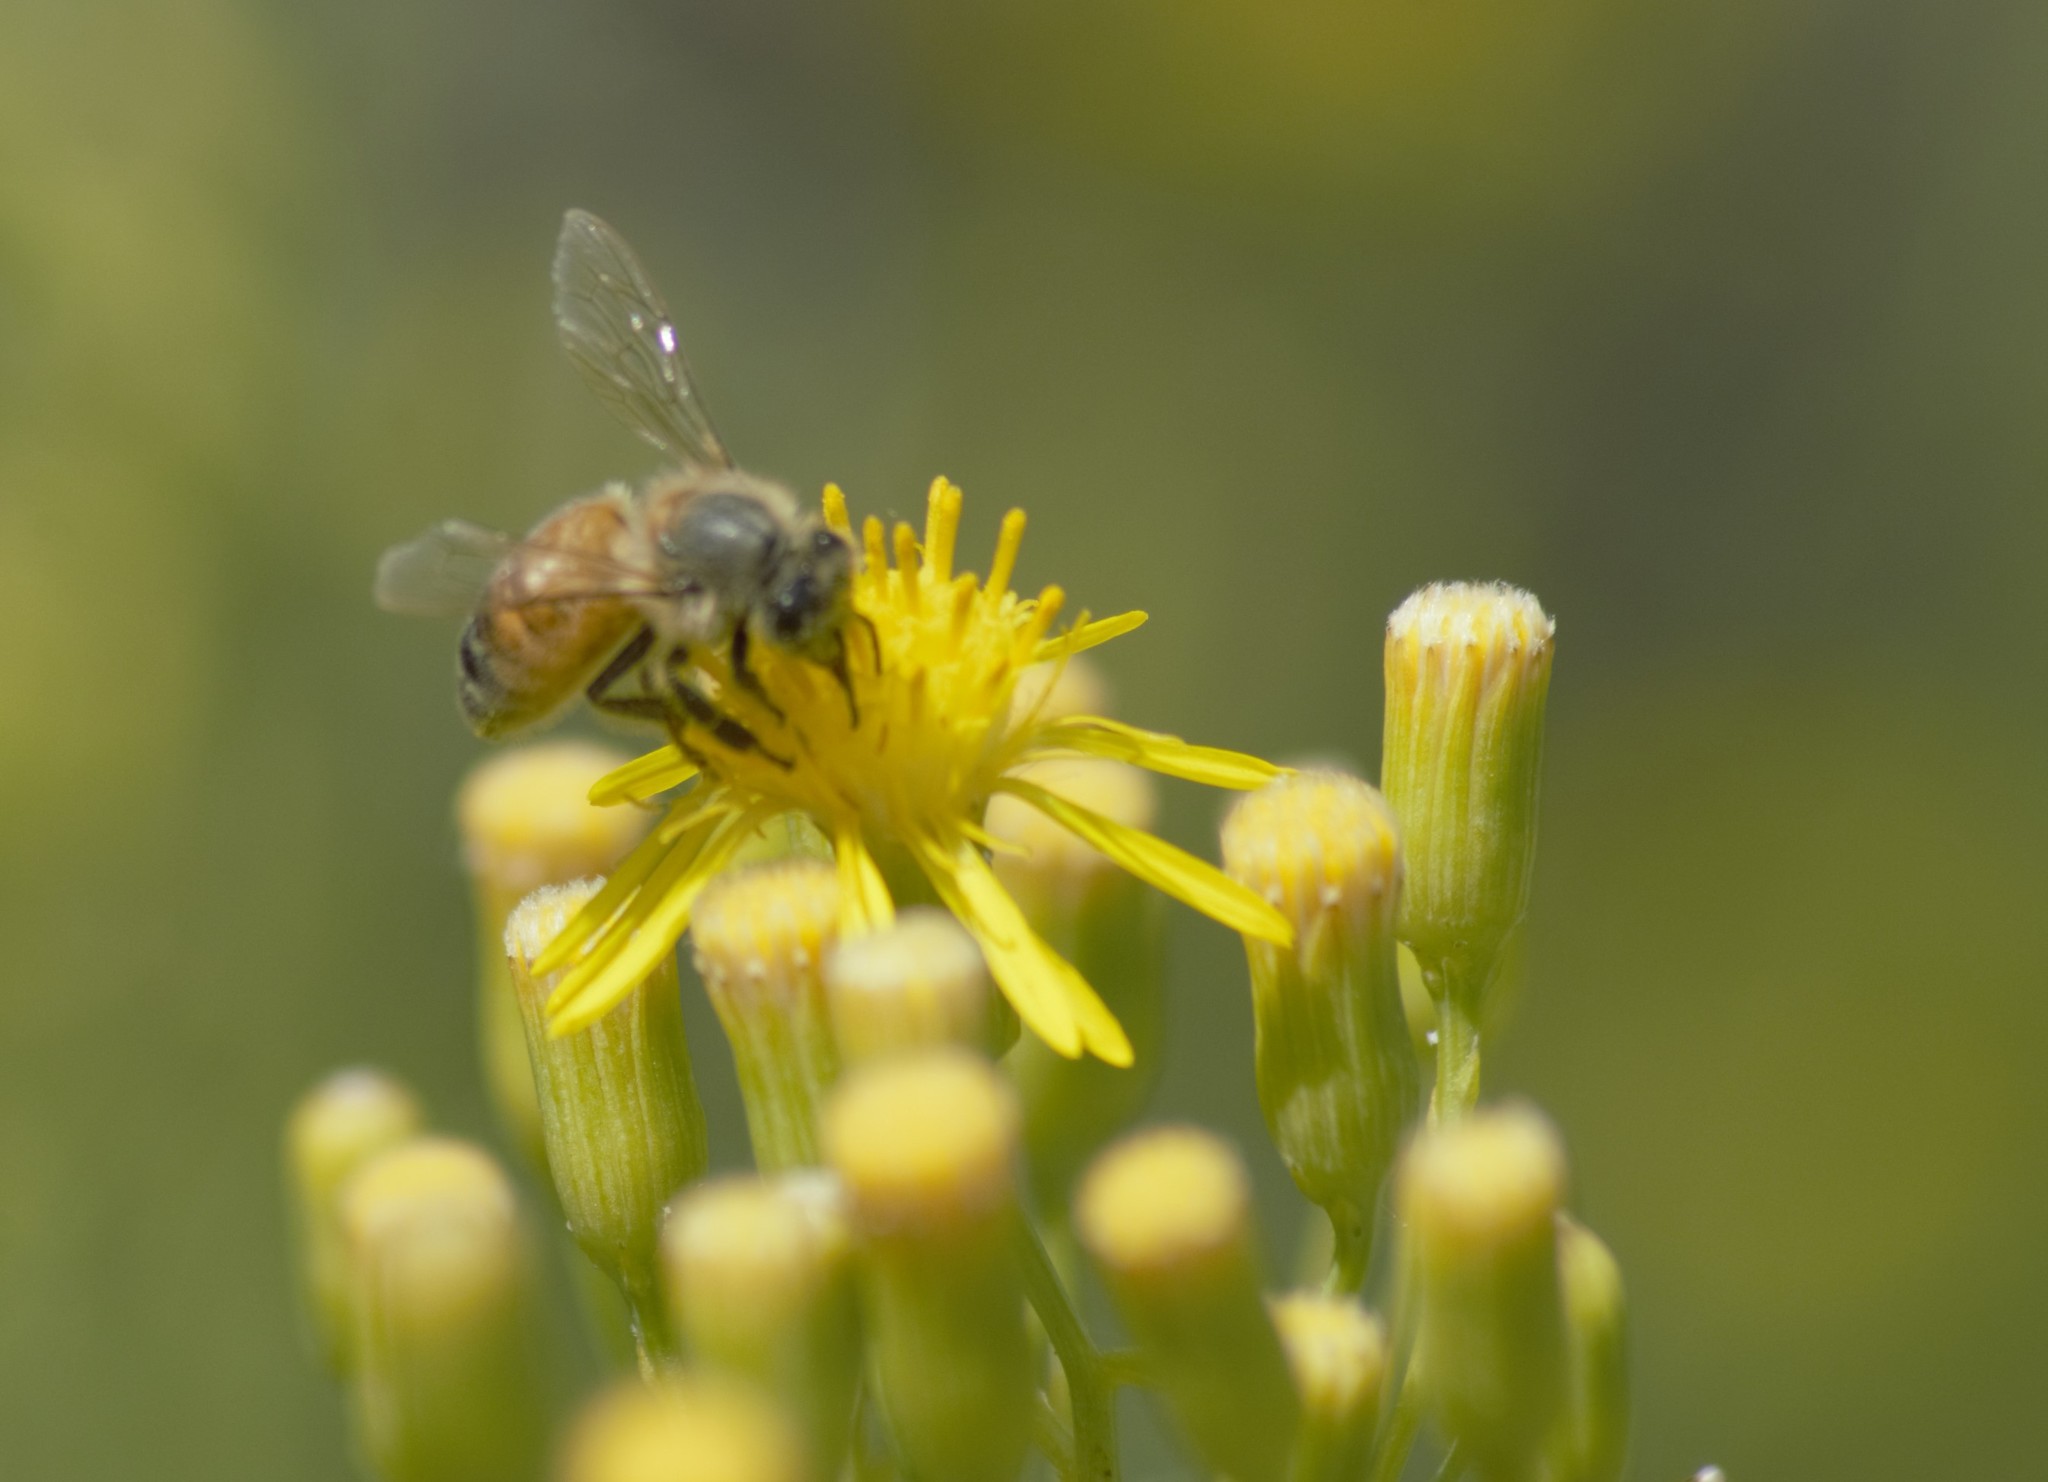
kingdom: Animalia
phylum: Arthropoda
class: Insecta
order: Hymenoptera
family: Apidae
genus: Apis
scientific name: Apis mellifera
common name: Honey bee
